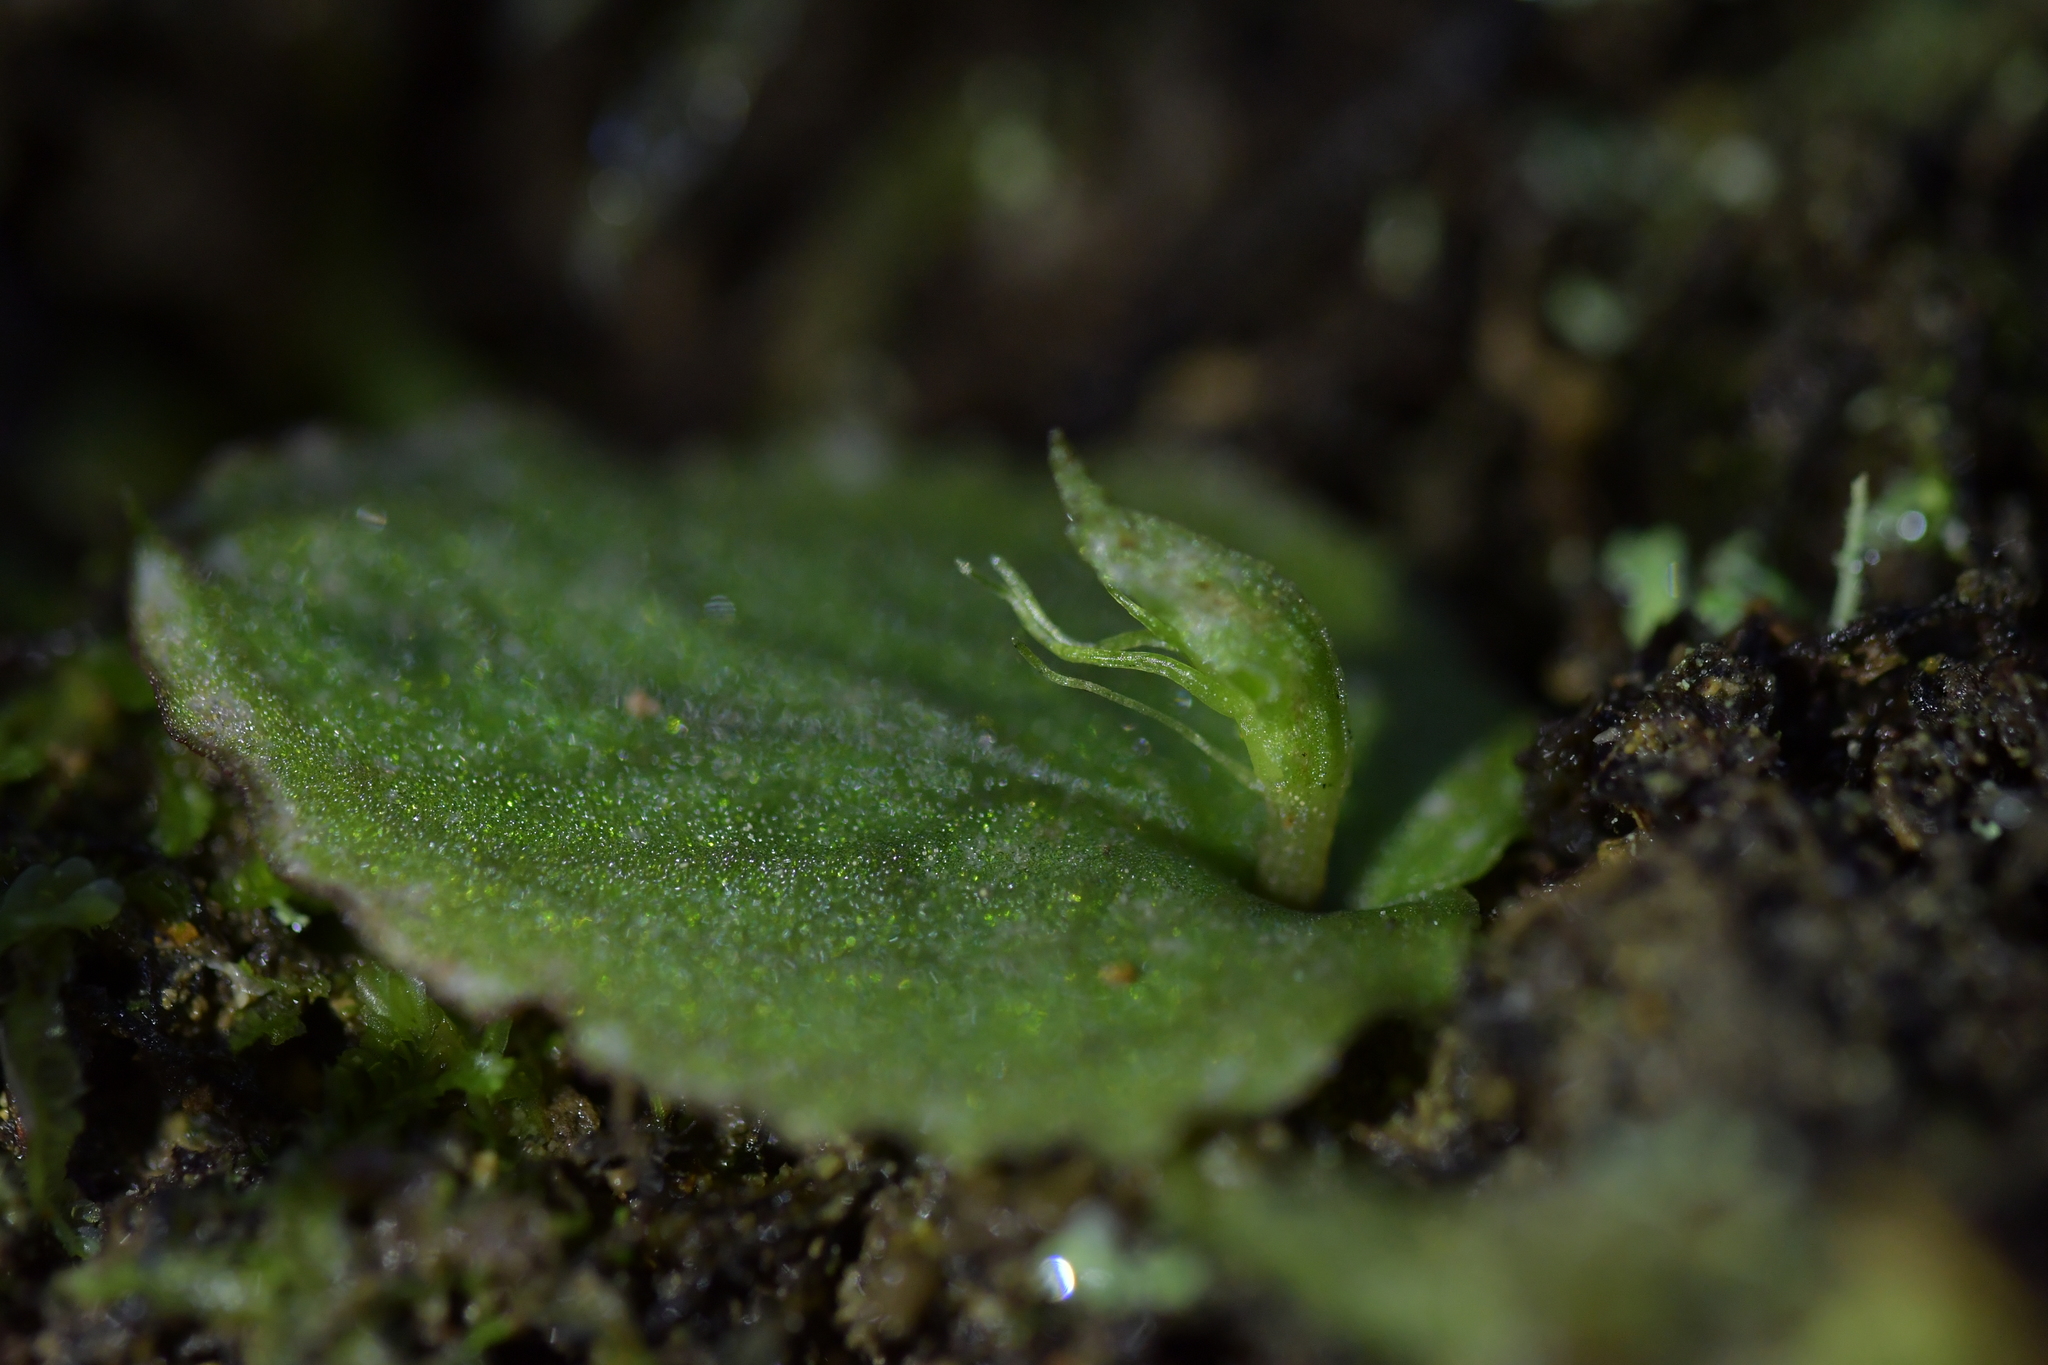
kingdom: Plantae
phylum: Tracheophyta
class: Liliopsida
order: Asparagales
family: Orchidaceae
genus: Corybas
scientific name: Corybas oblongus
